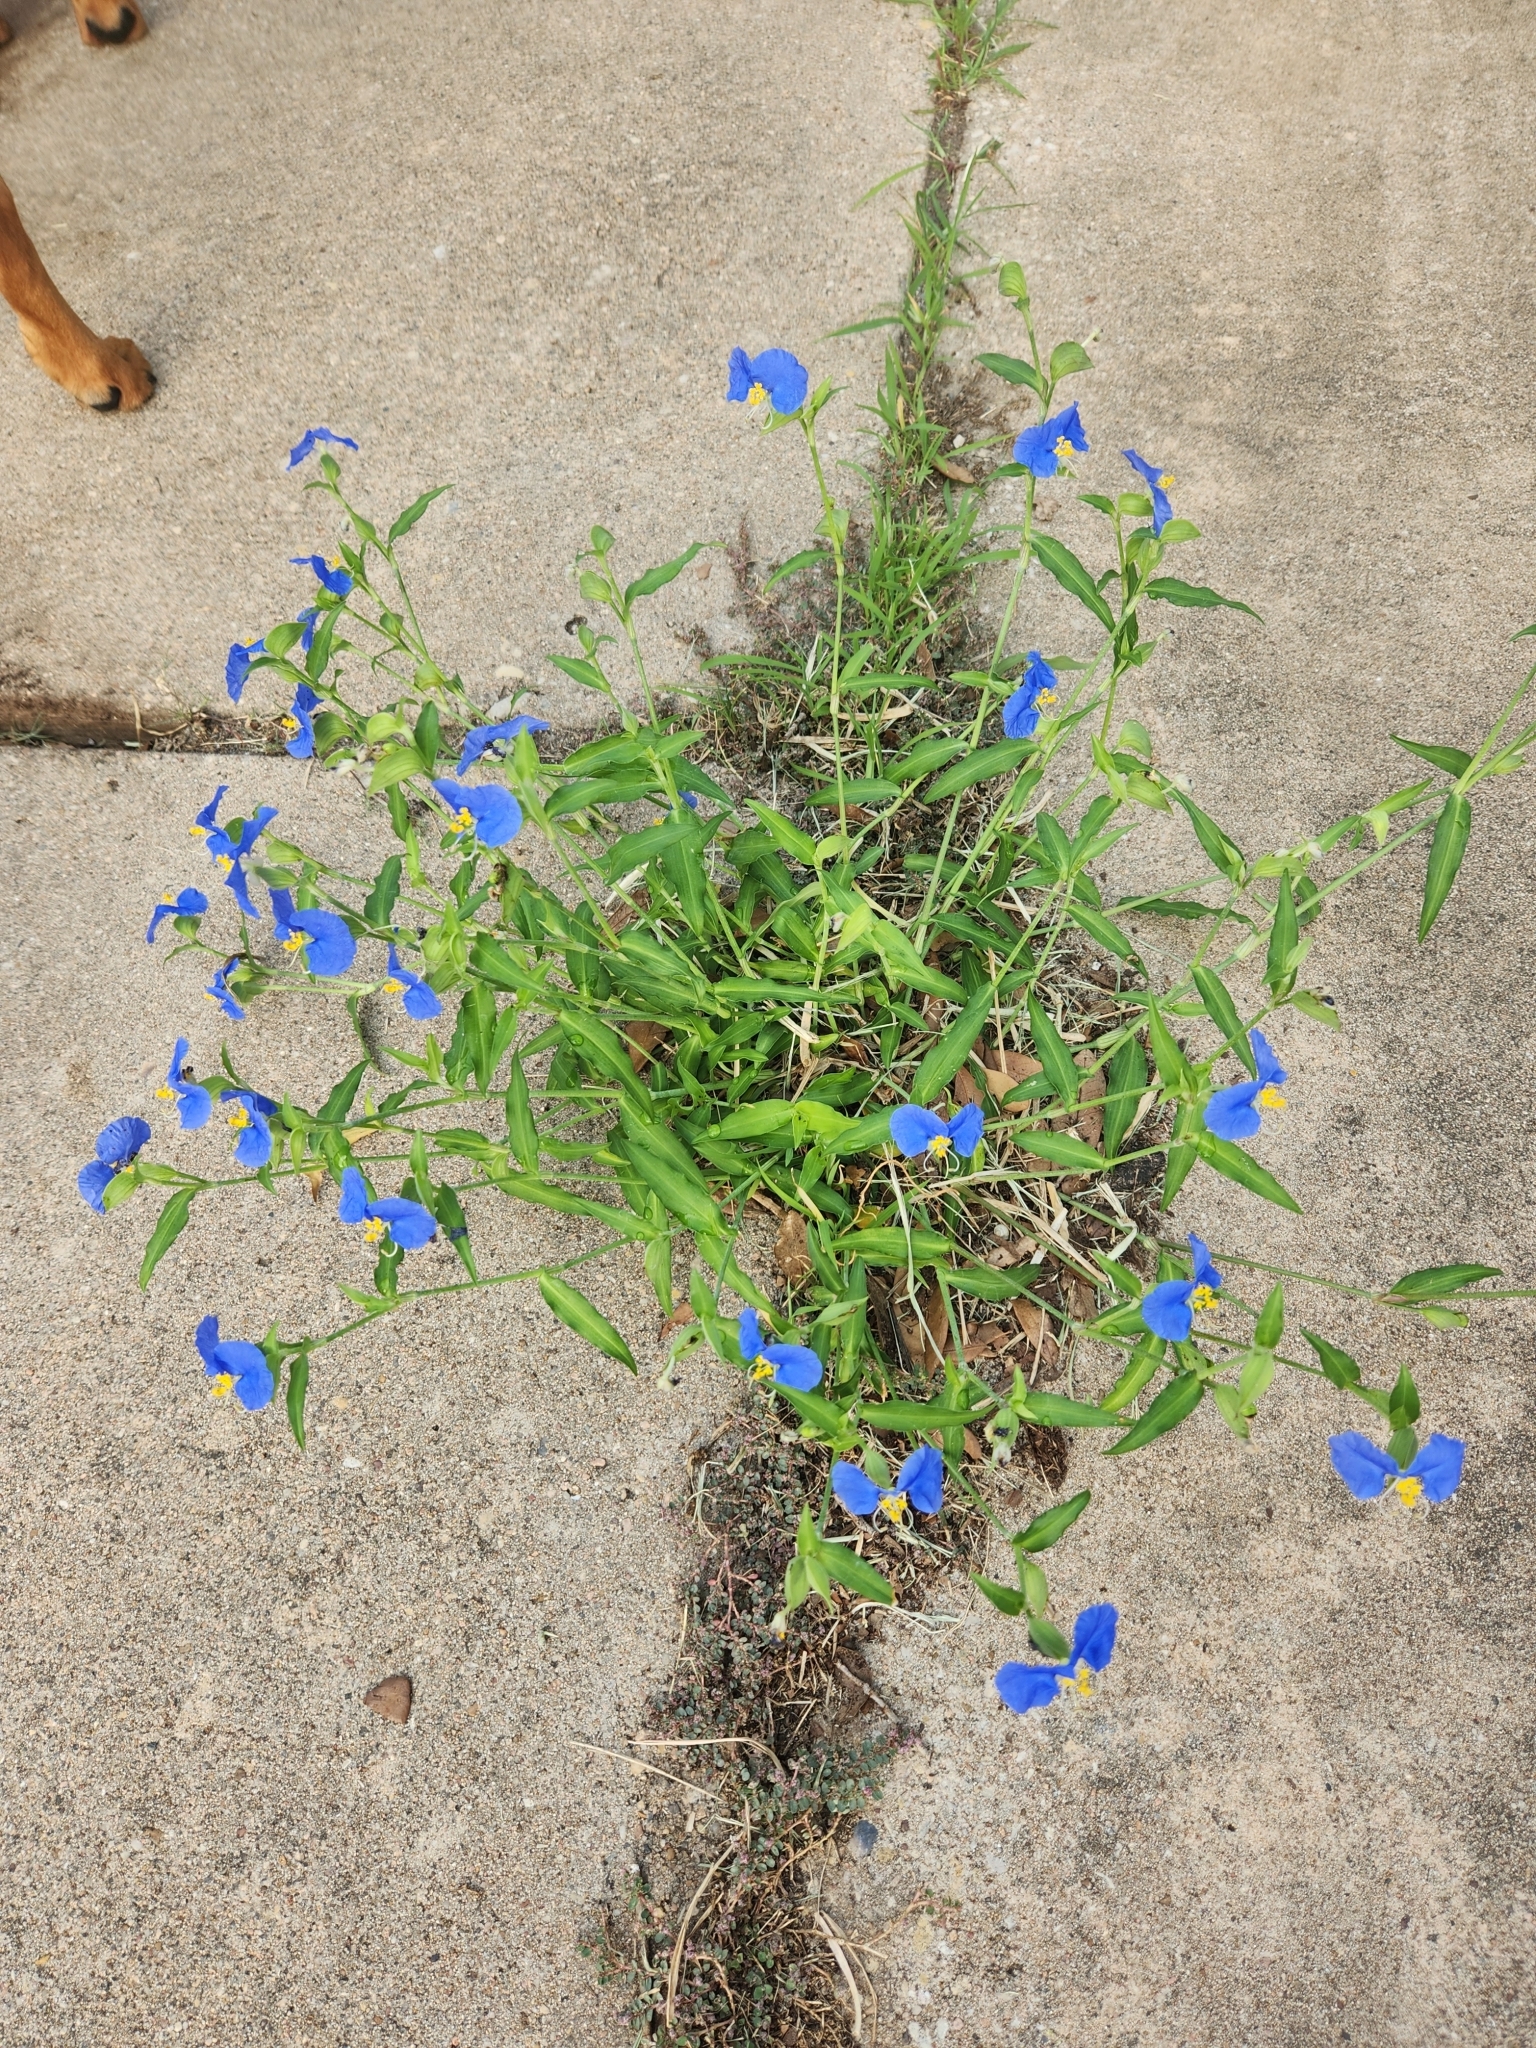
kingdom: Plantae
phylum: Tracheophyta
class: Liliopsida
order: Commelinales
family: Commelinaceae
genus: Commelina
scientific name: Commelina erecta
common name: Blousel blommetjie
